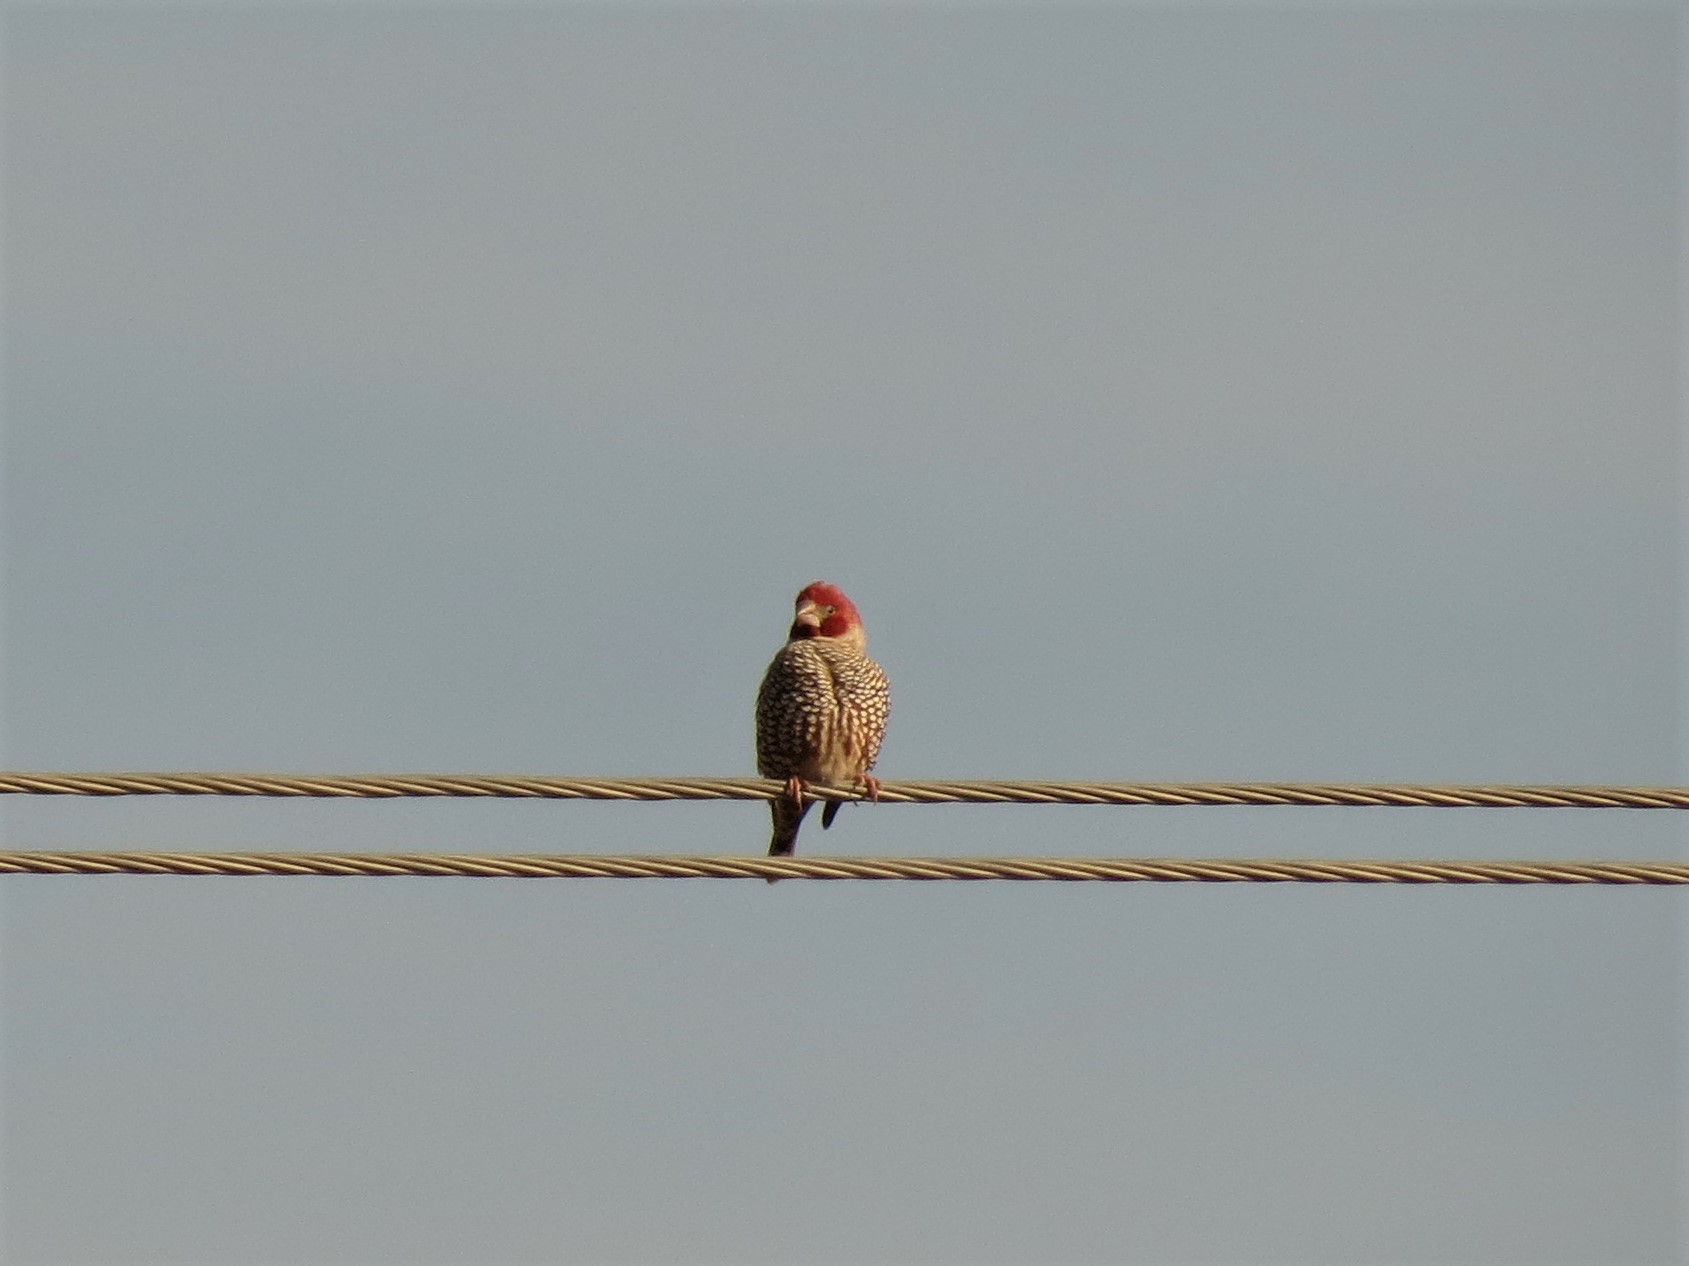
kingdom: Animalia
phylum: Chordata
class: Aves
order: Passeriformes
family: Estrildidae
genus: Amadina
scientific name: Amadina erythrocephala
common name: Red-headed finch
